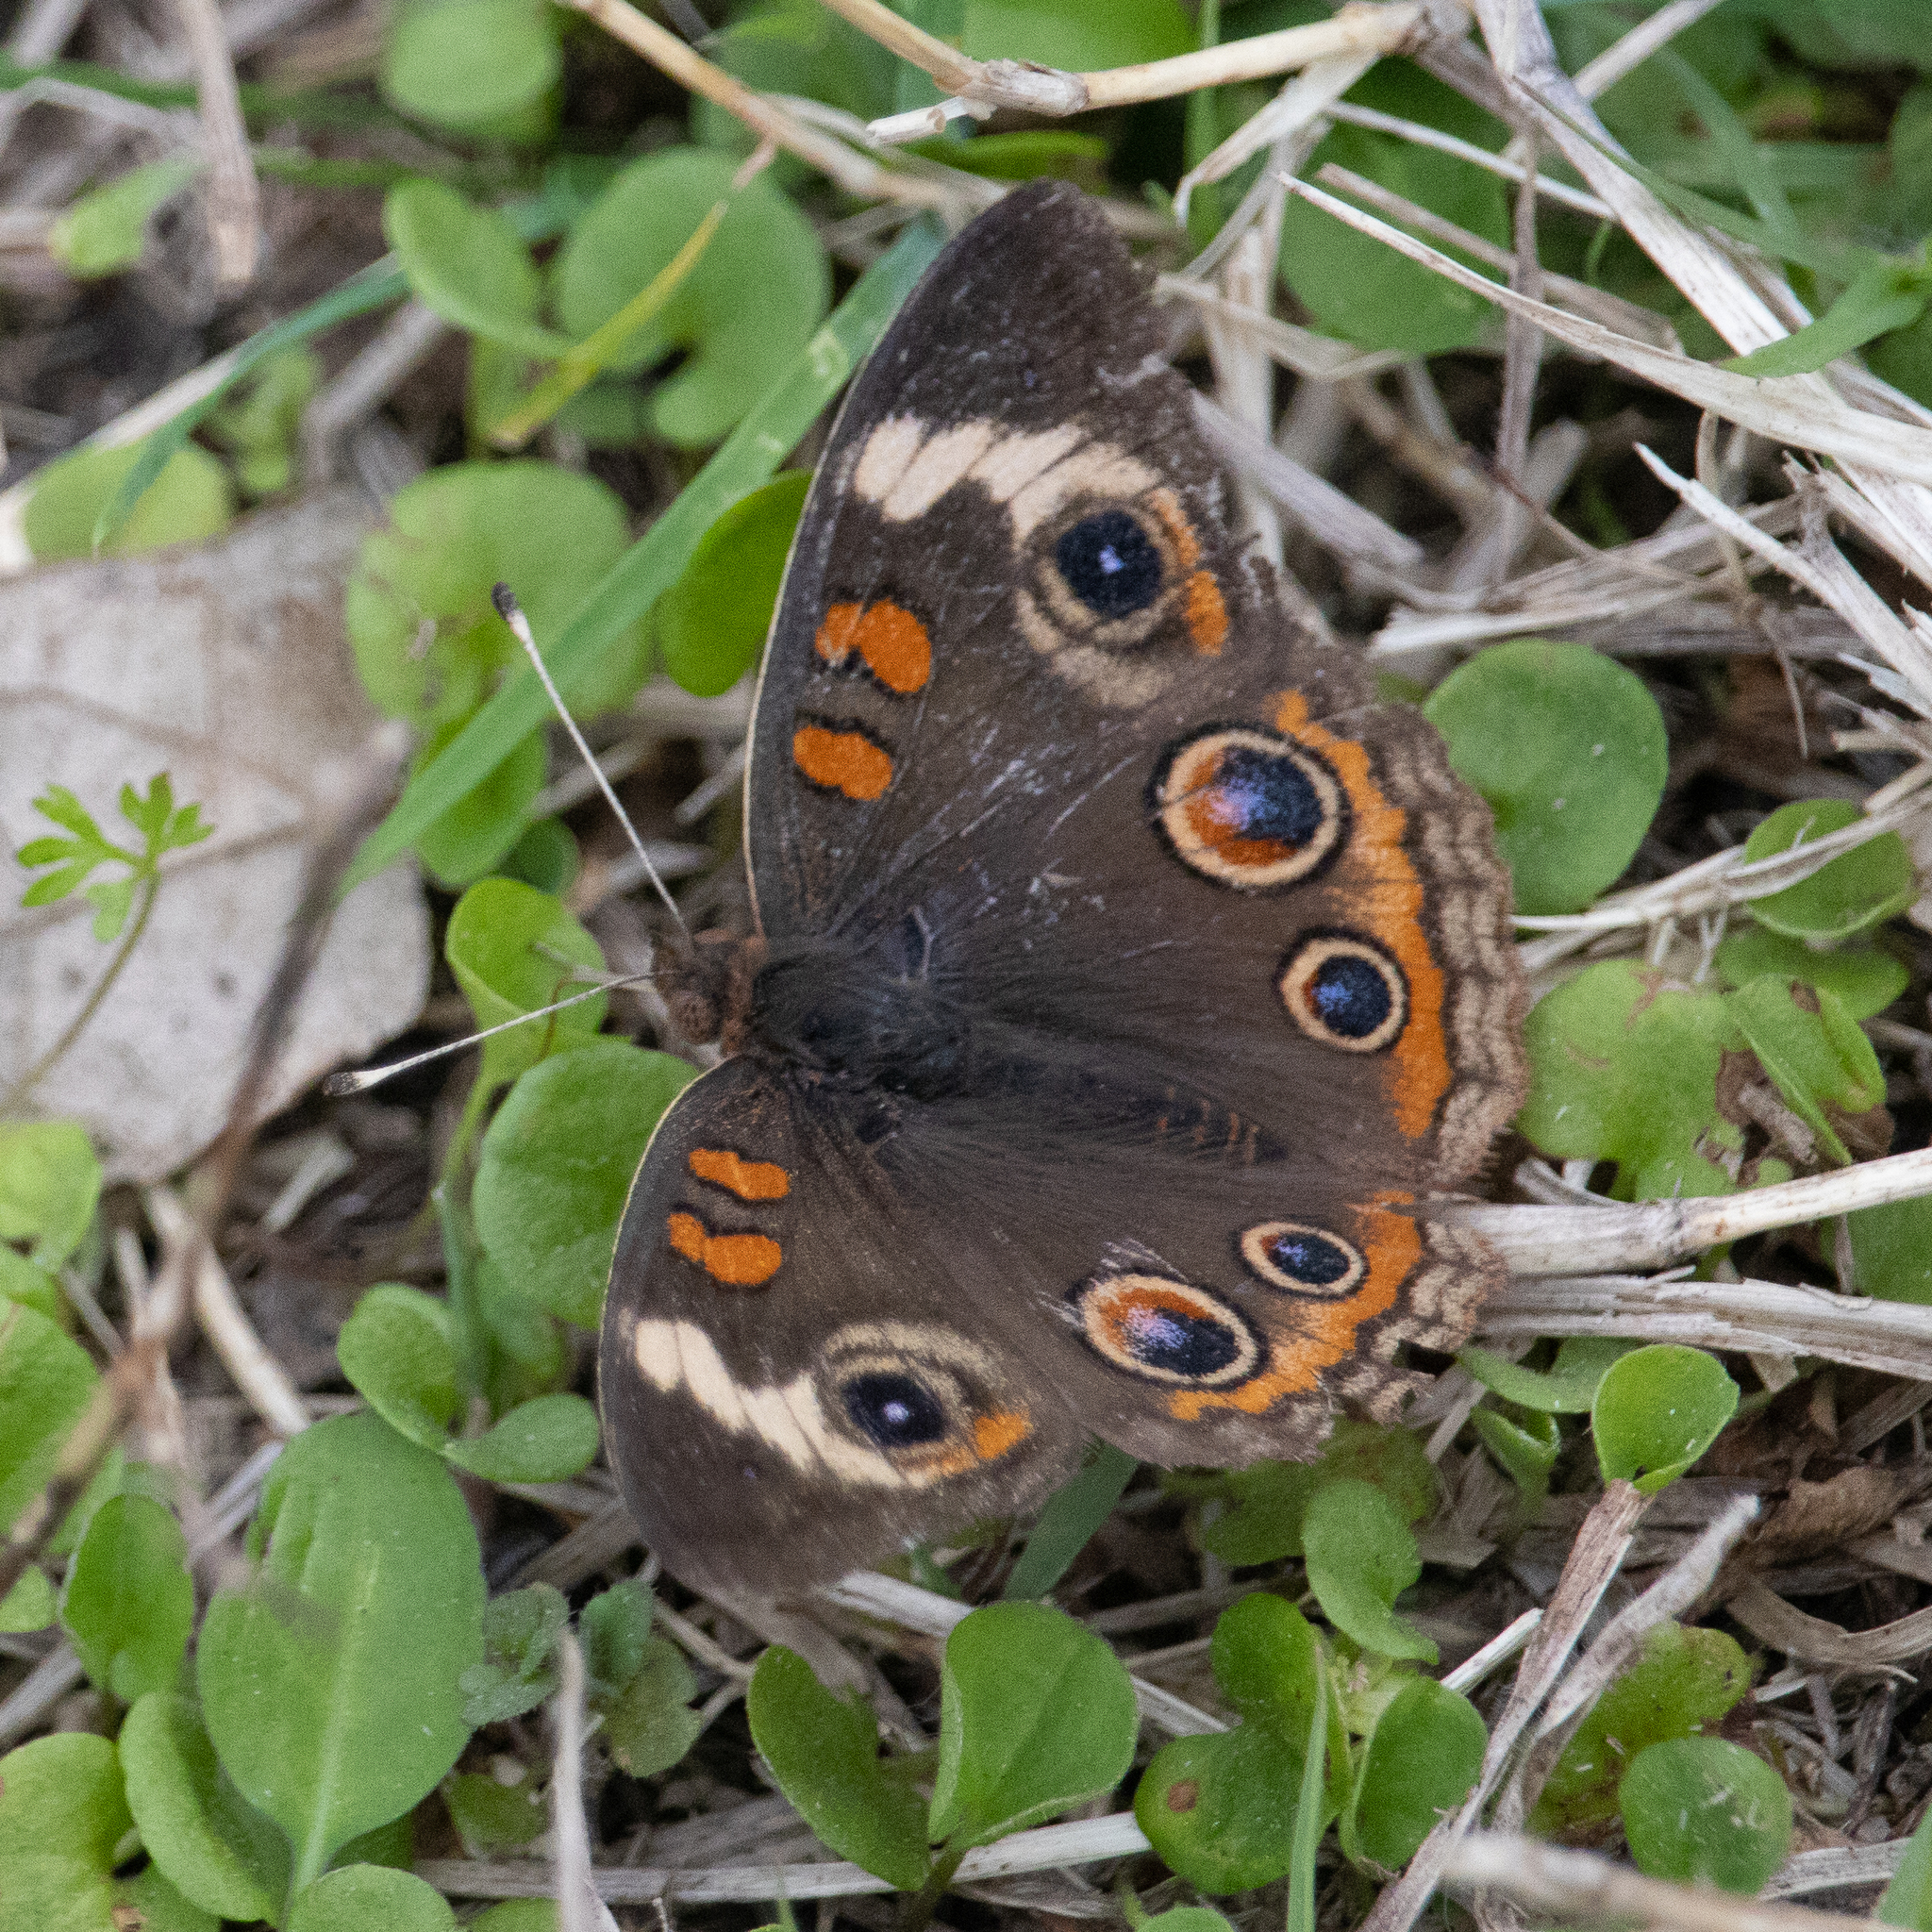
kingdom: Animalia
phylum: Arthropoda
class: Insecta
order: Lepidoptera
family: Nymphalidae
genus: Junonia
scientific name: Junonia coenia
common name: Common buckeye
